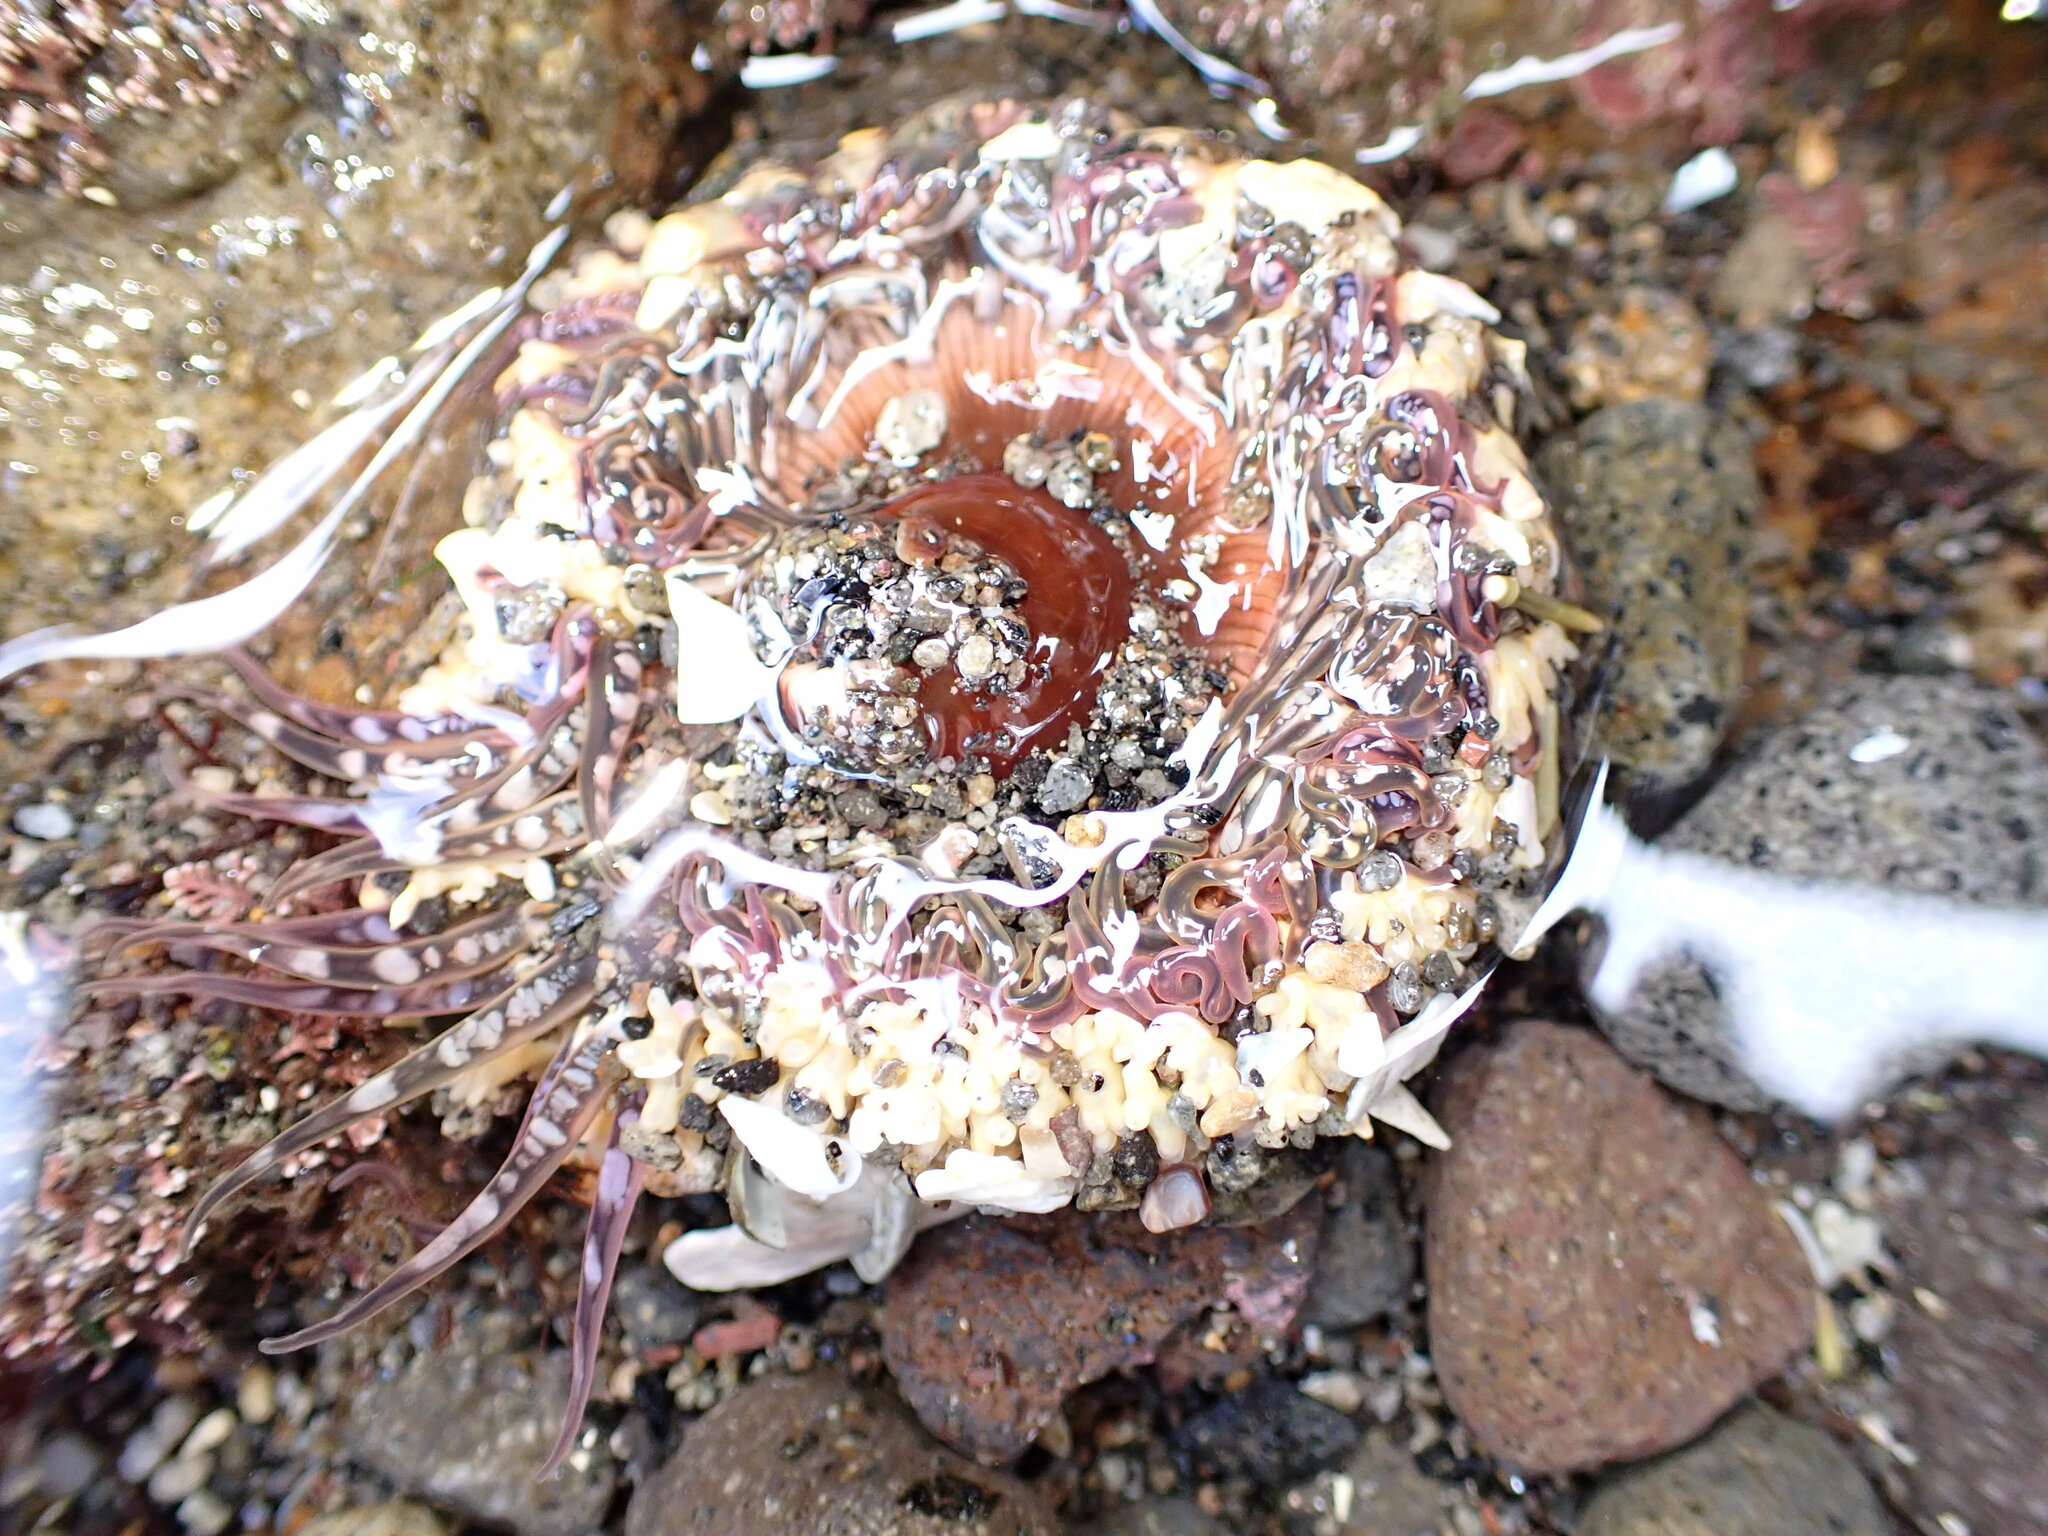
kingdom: Animalia
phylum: Cnidaria
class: Anthozoa
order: Actiniaria
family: Actiniidae
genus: Oulactis
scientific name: Oulactis muscosa
